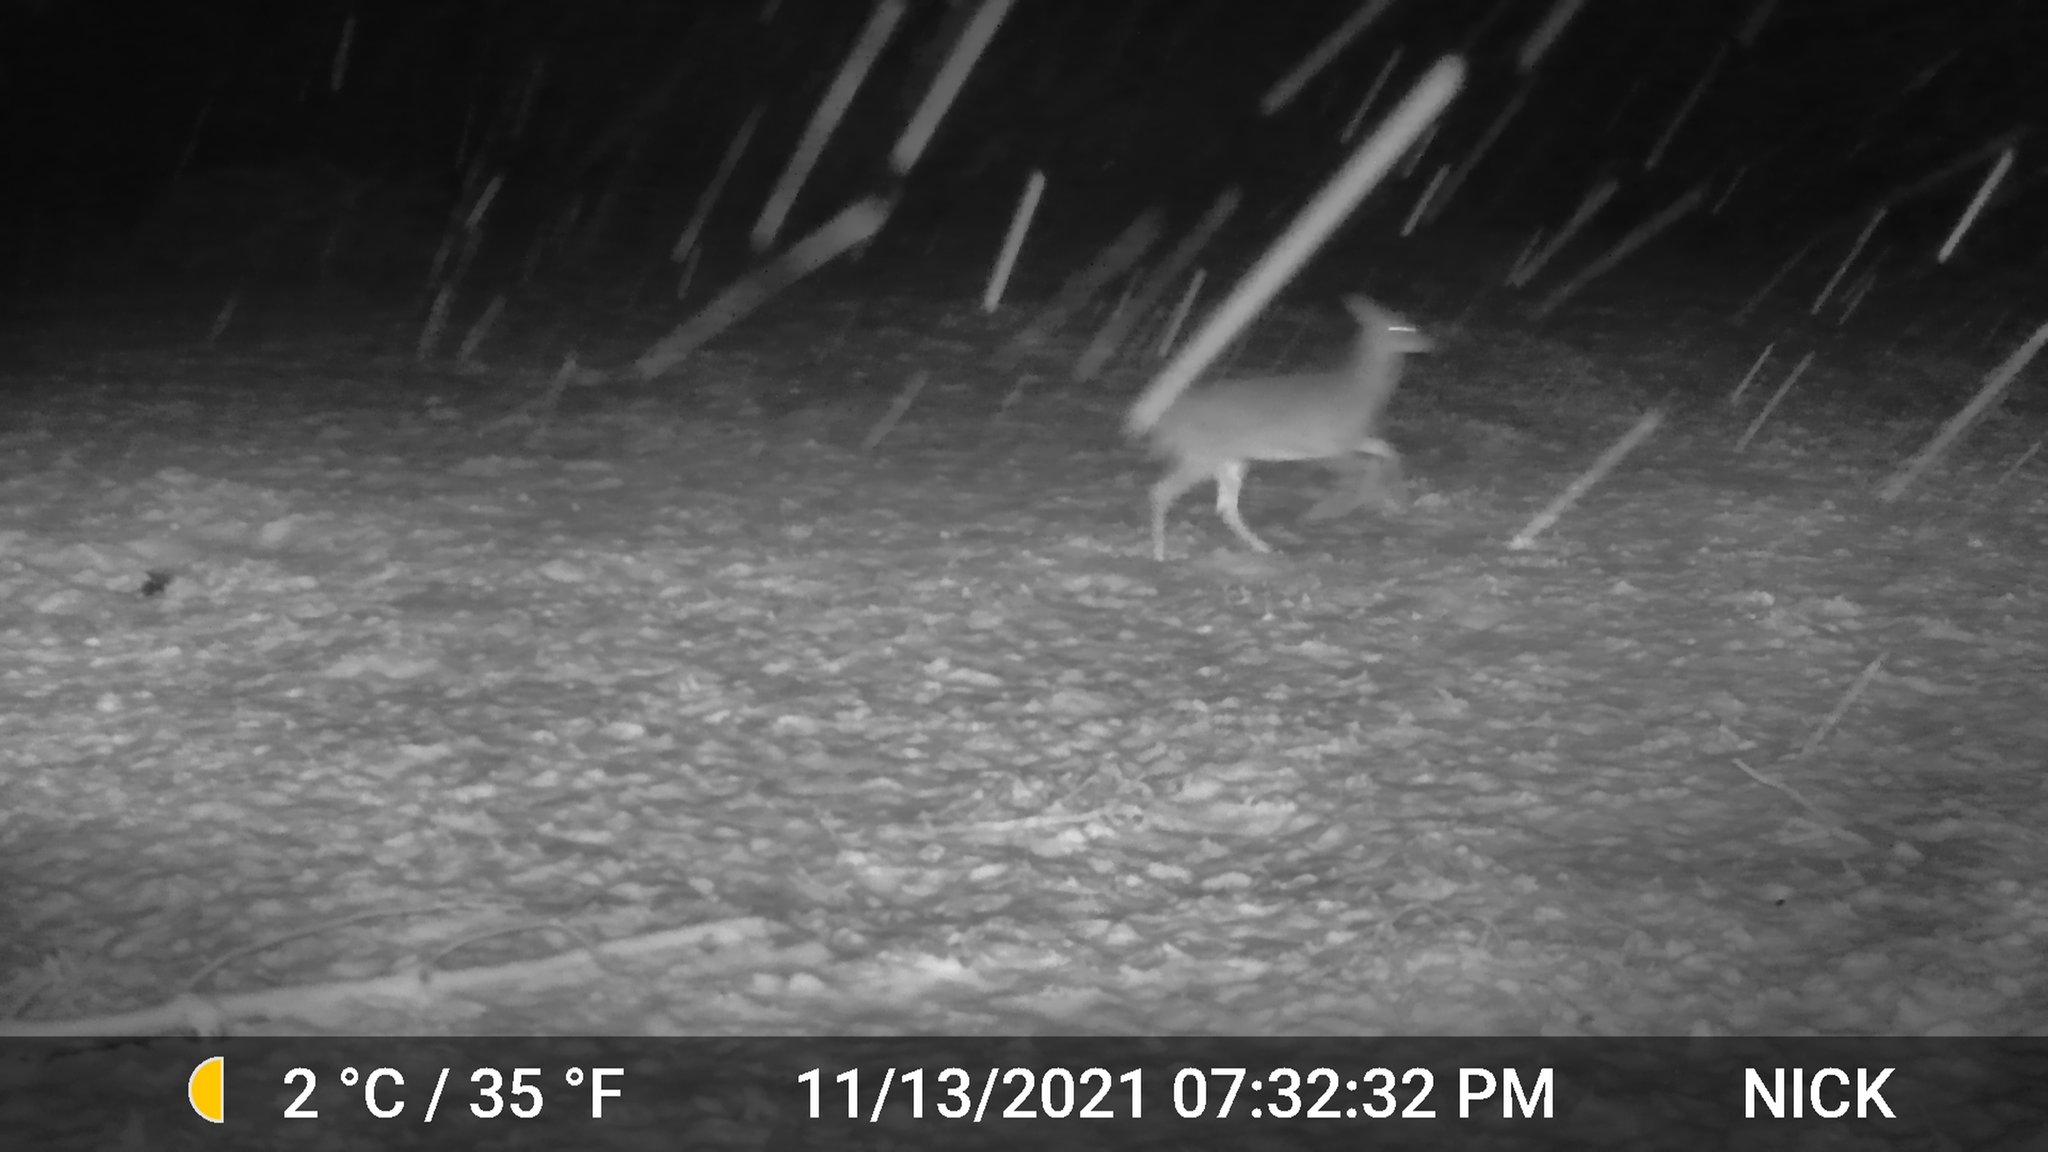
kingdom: Animalia
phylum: Chordata
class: Mammalia
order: Artiodactyla
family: Cervidae
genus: Odocoileus
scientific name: Odocoileus virginianus
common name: White-tailed deer
